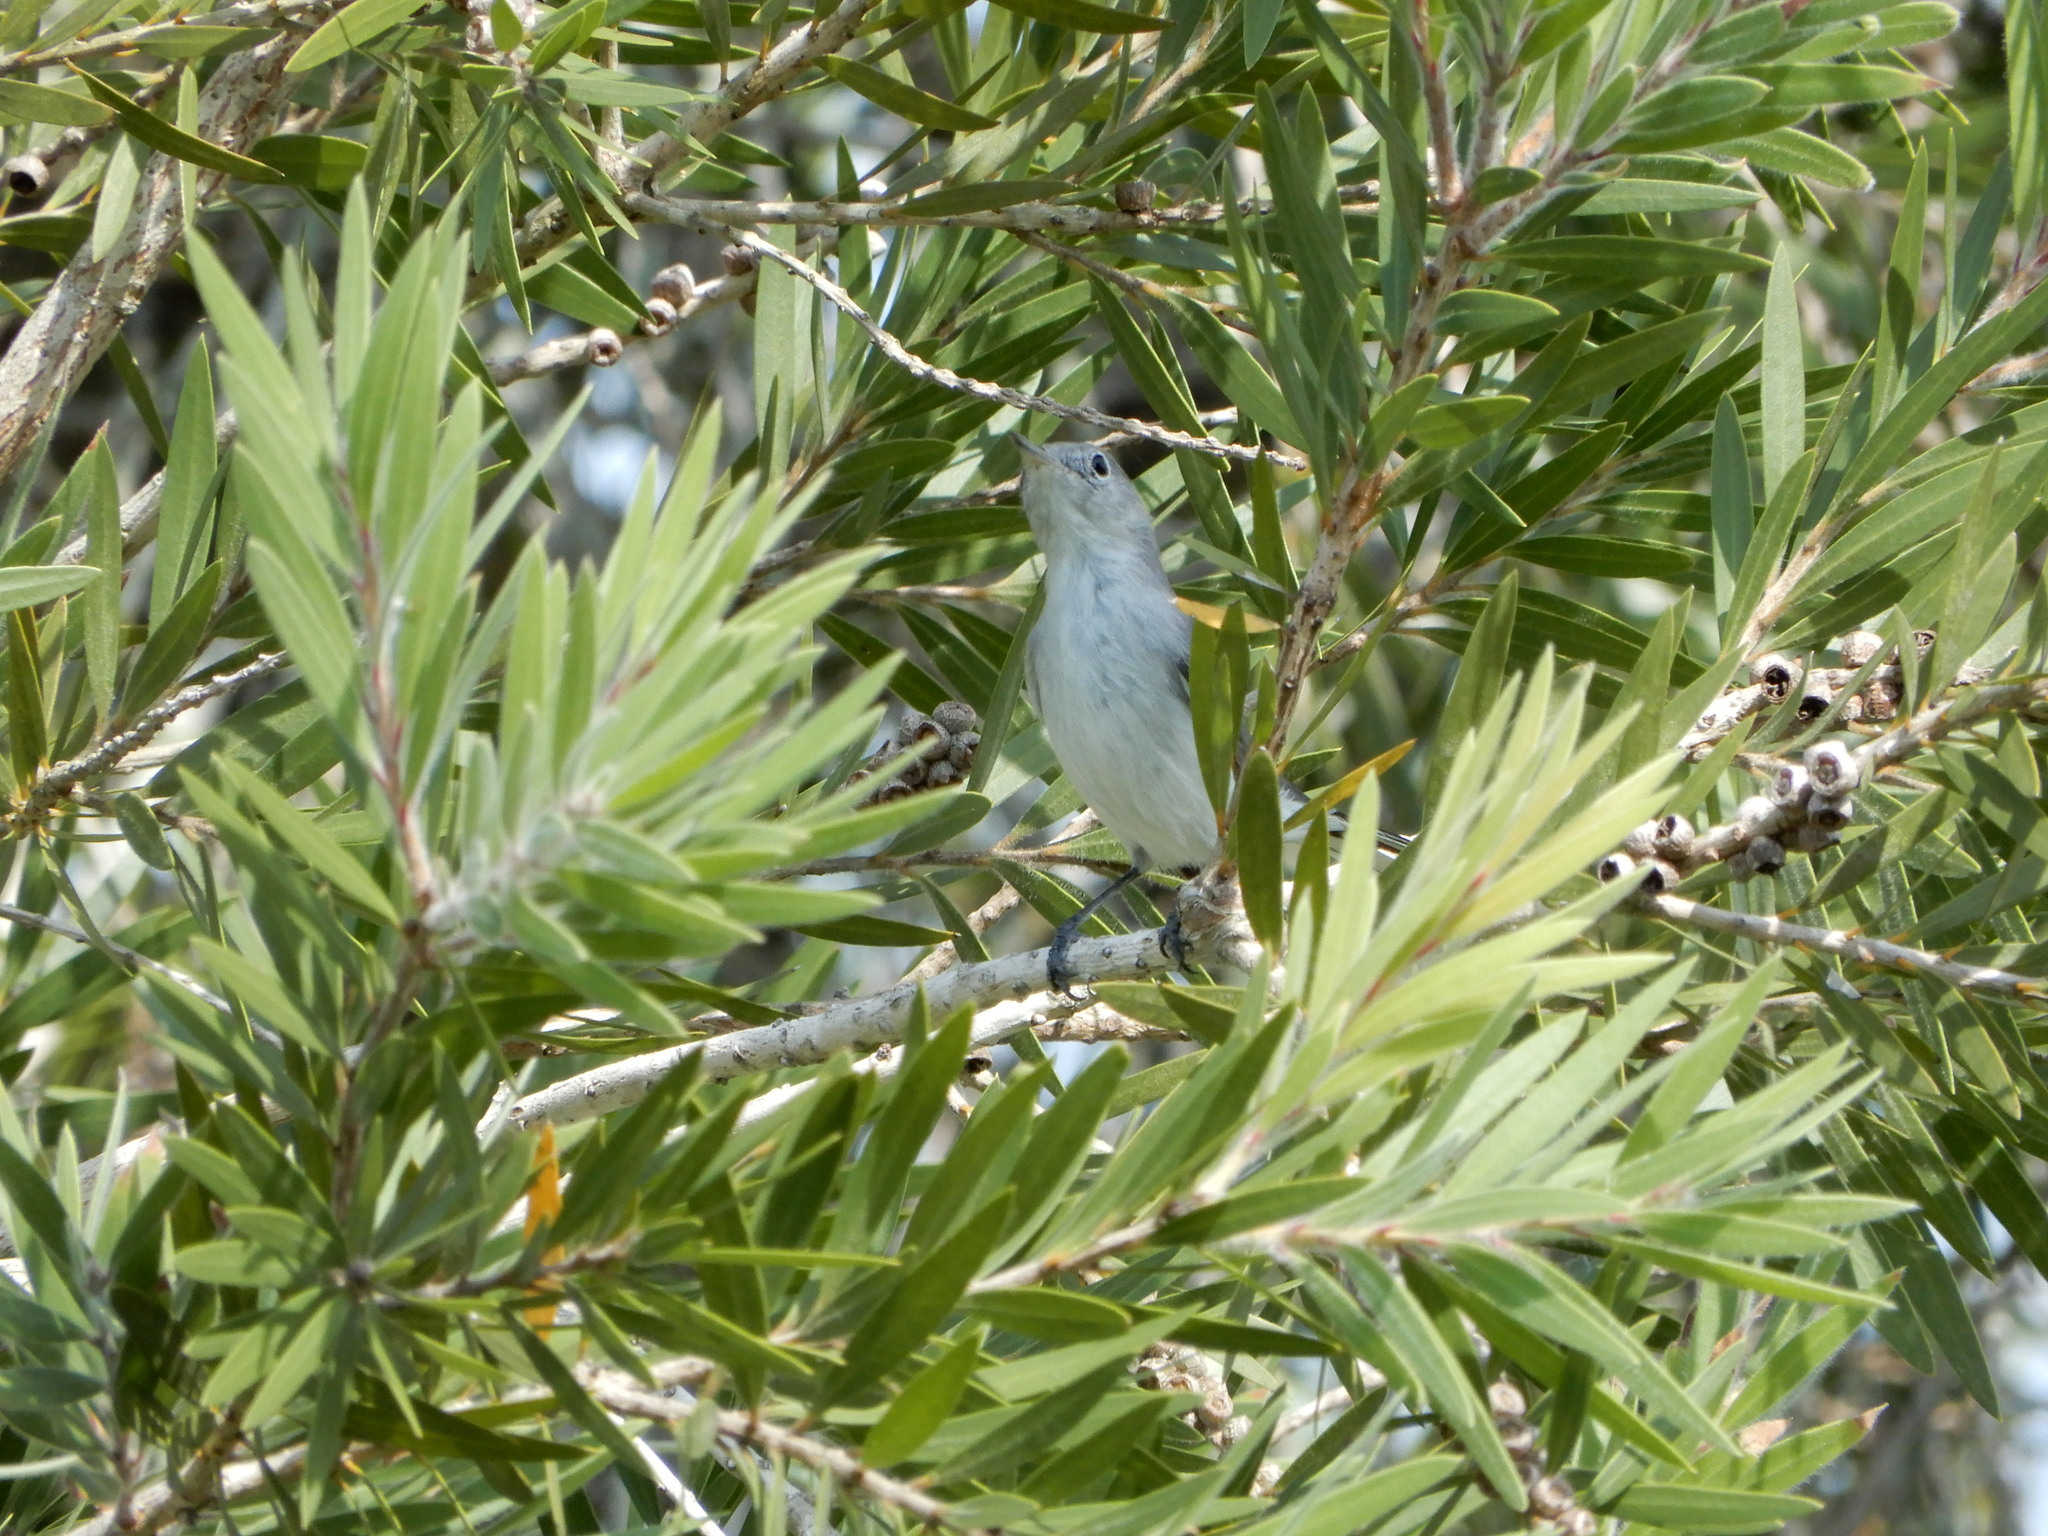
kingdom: Animalia
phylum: Chordata
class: Aves
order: Passeriformes
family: Polioptilidae
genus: Polioptila
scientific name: Polioptila caerulea
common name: Blue-gray gnatcatcher
